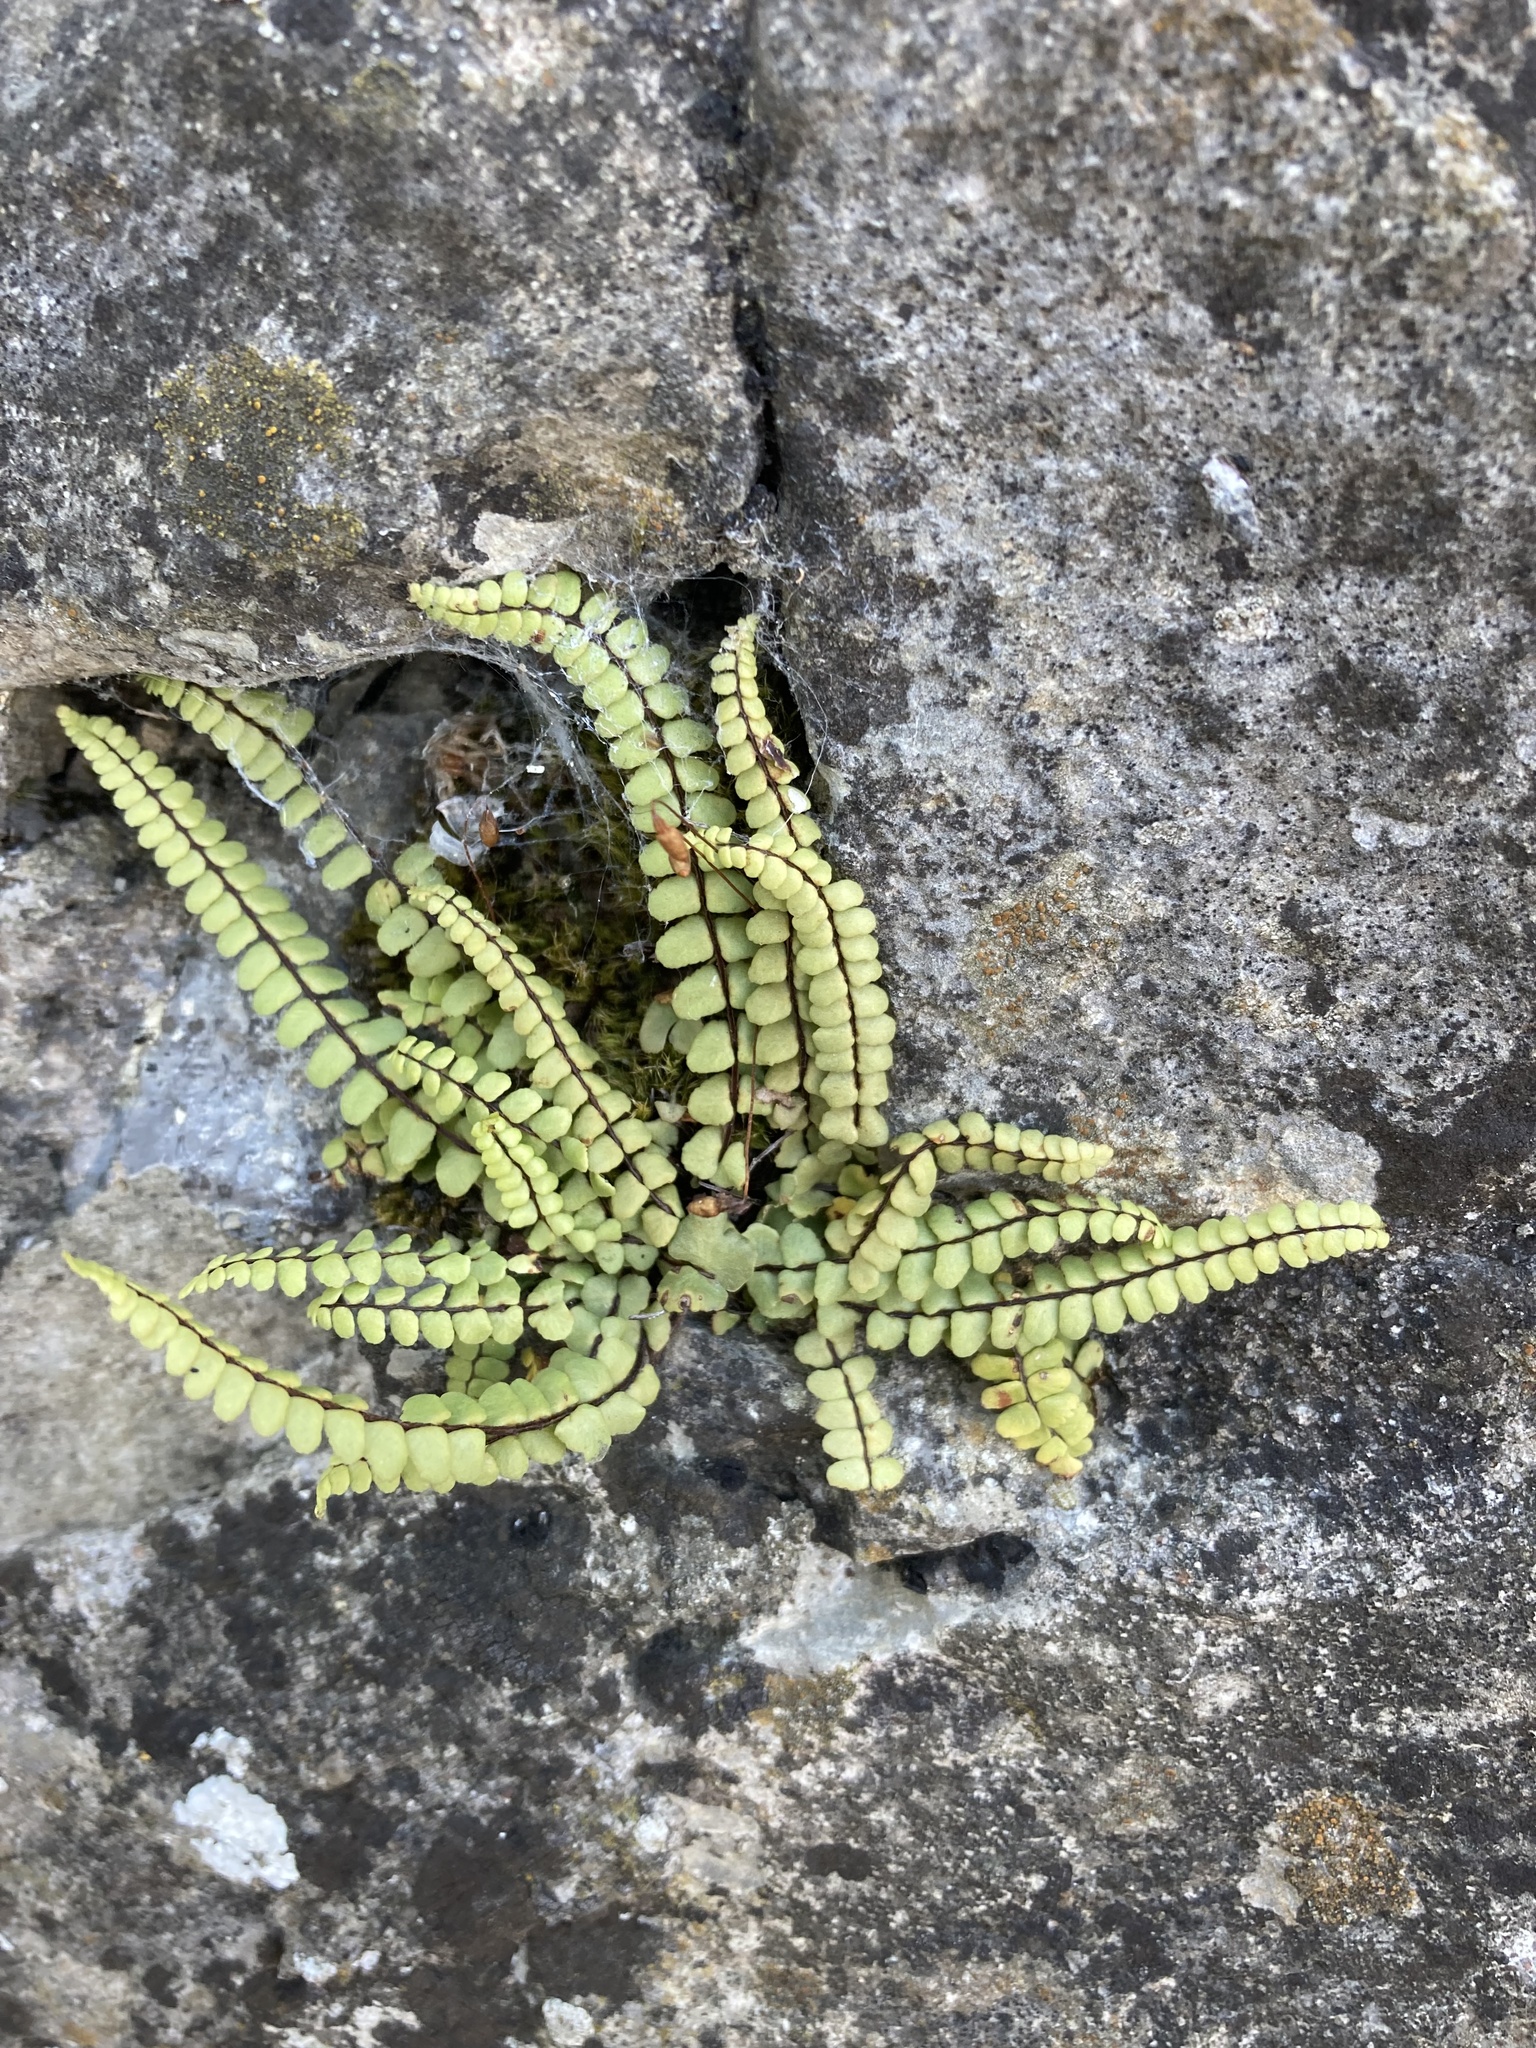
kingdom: Plantae
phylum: Tracheophyta
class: Polypodiopsida
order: Polypodiales
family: Aspleniaceae
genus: Asplenium
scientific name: Asplenium trichomanes
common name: Maidenhair spleenwort
